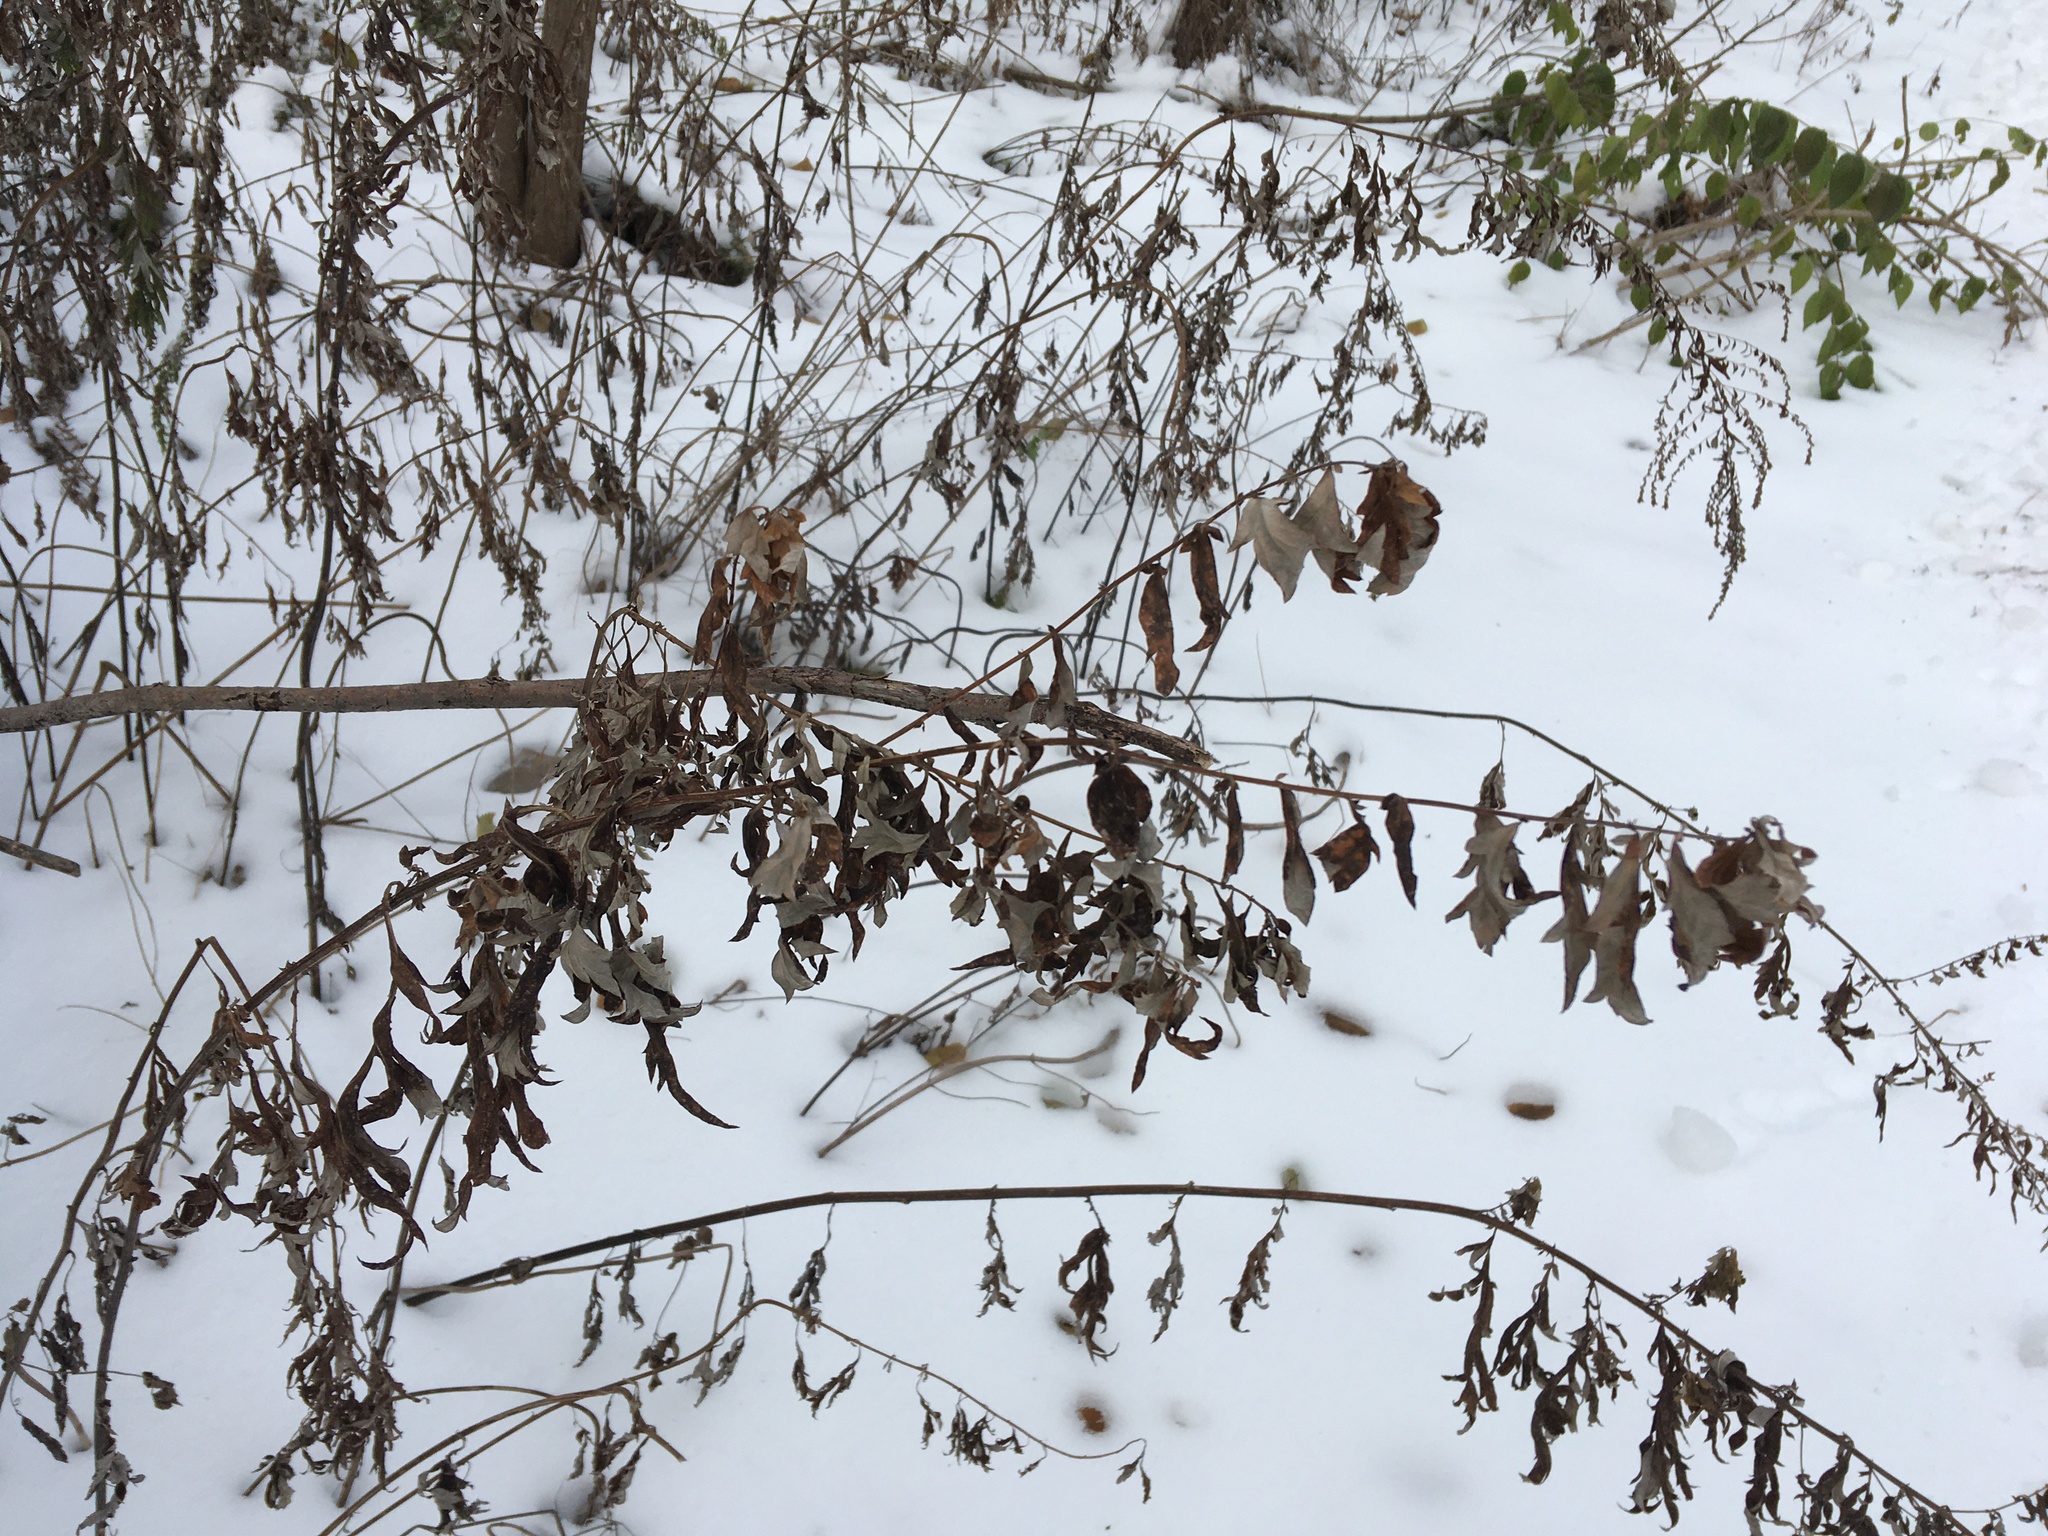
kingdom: Plantae
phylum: Tracheophyta
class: Magnoliopsida
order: Asterales
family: Asteraceae
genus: Artemisia
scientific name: Artemisia vulgaris
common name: Mugwort
